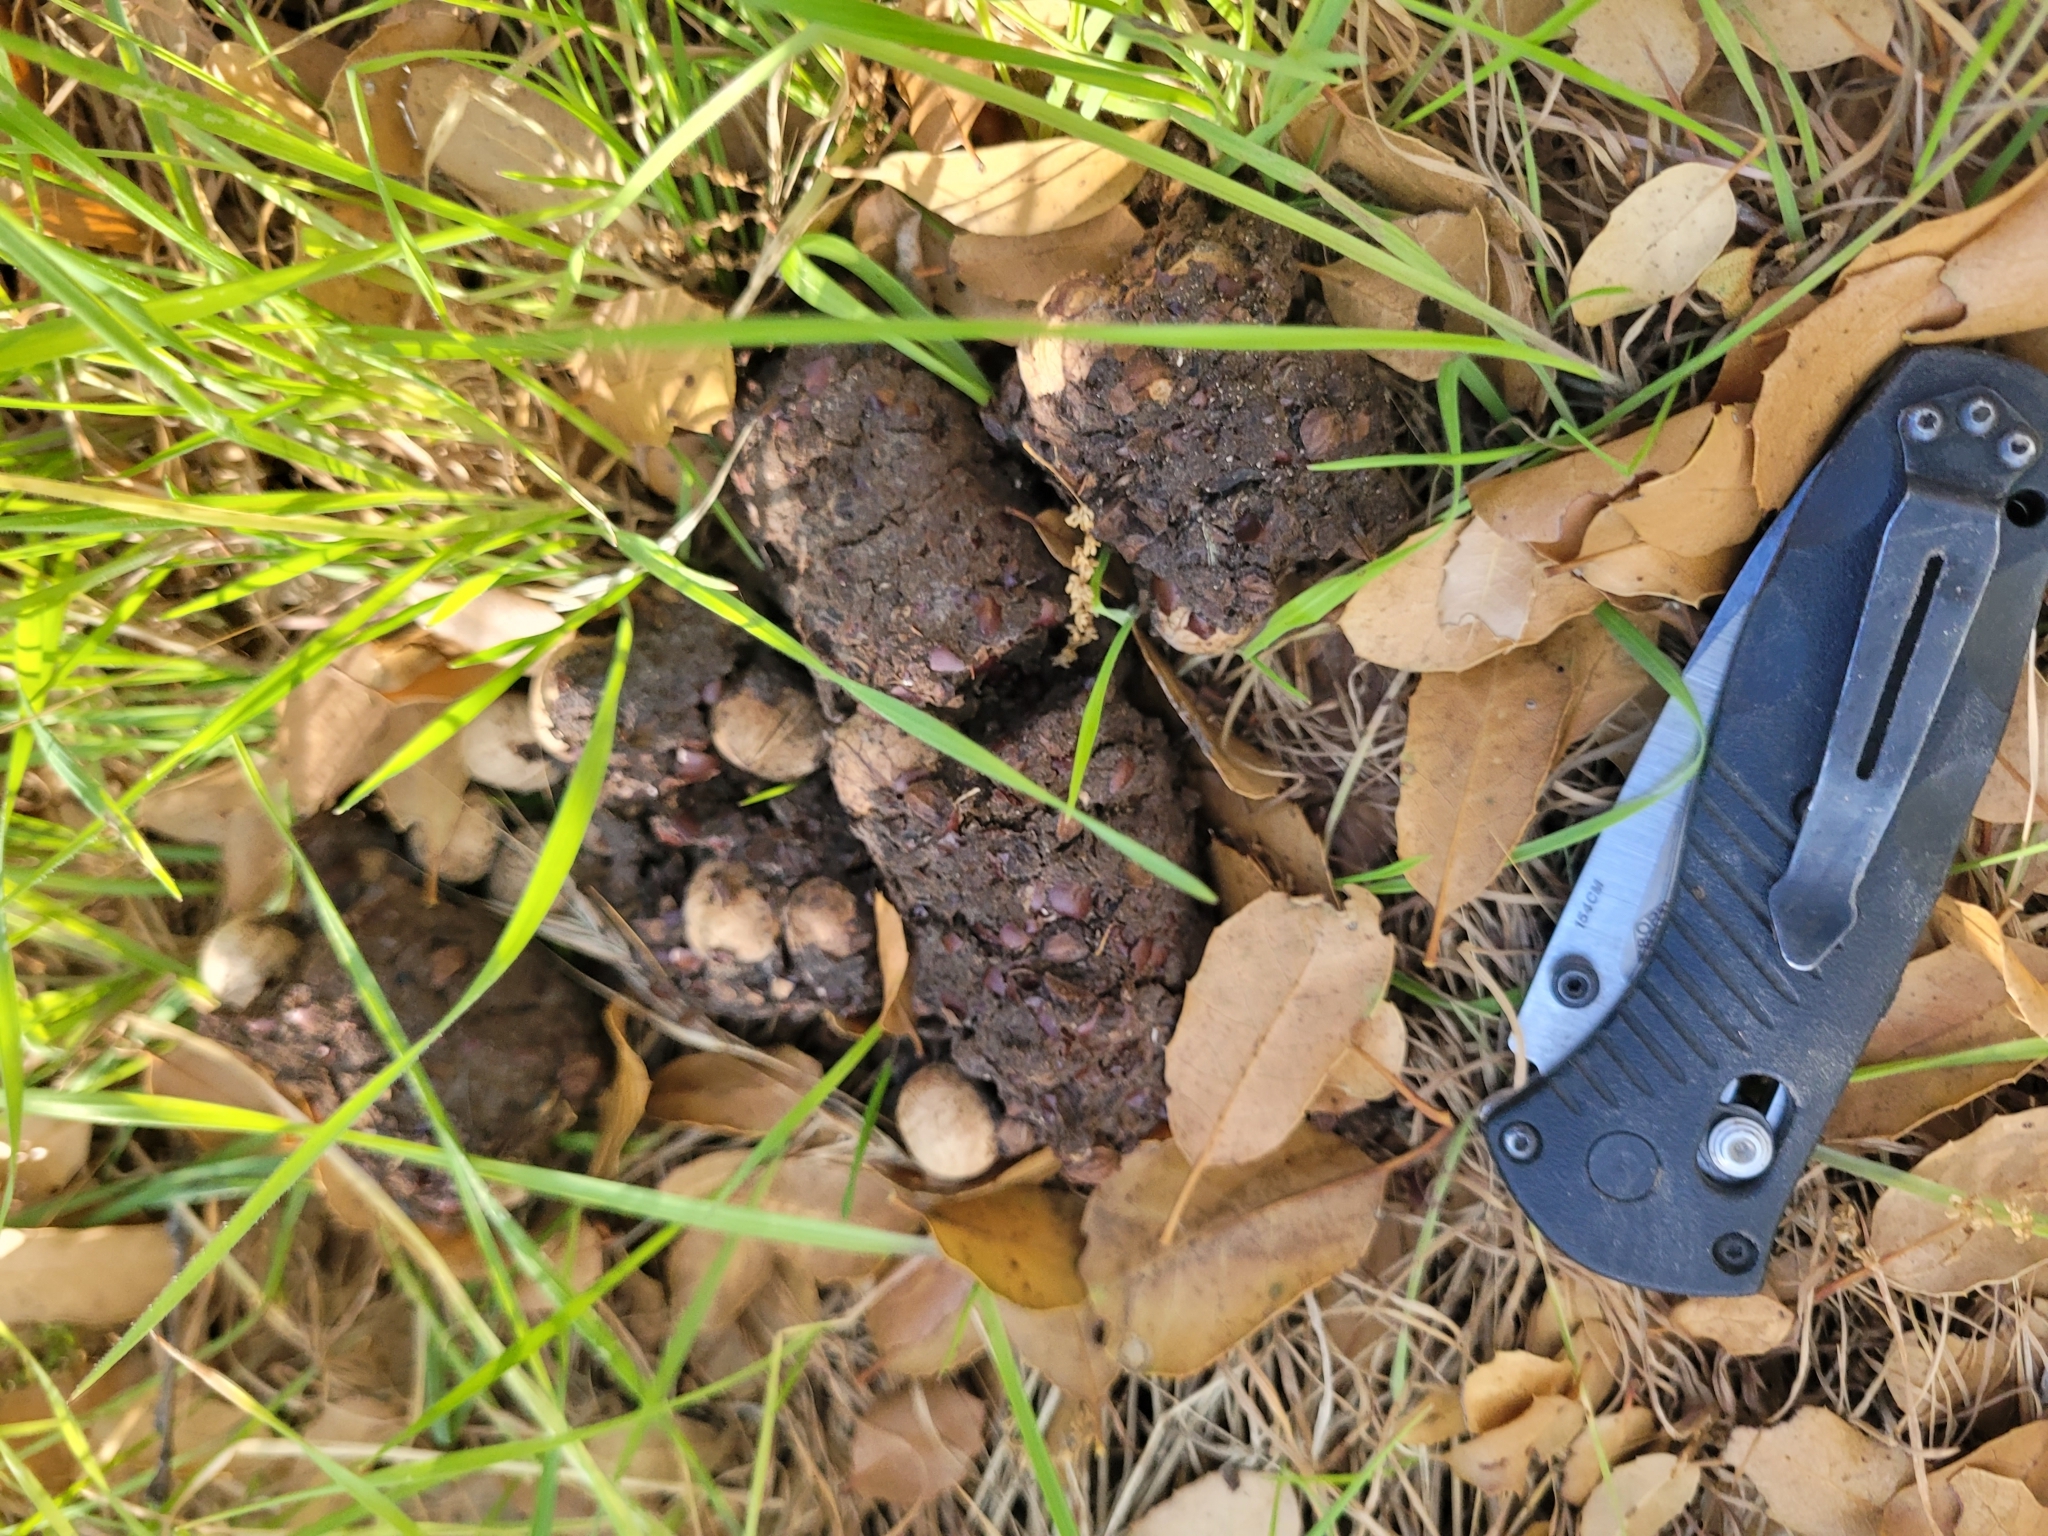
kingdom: Animalia
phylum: Chordata
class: Mammalia
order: Carnivora
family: Ursidae
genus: Ursus
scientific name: Ursus americanus
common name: American black bear
